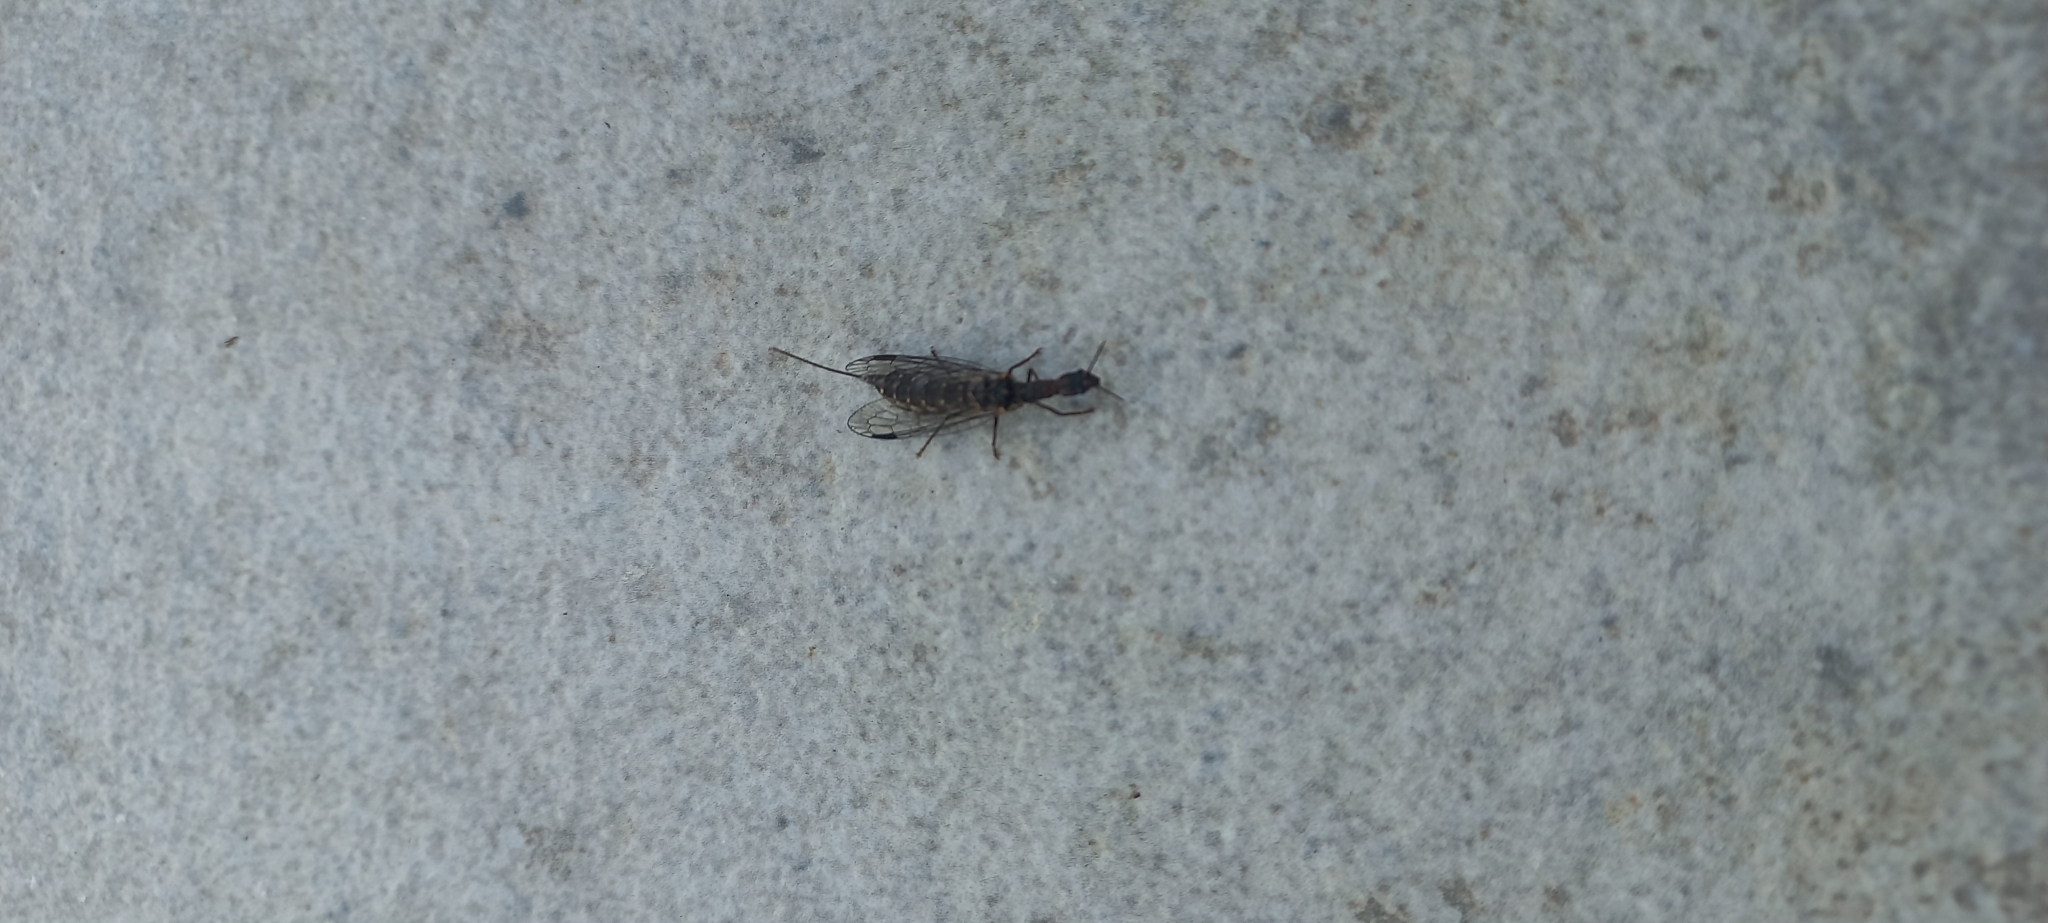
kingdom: Animalia
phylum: Arthropoda
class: Insecta
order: Raphidioptera
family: Inocelliidae
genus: Fibla
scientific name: Fibla hesperica
